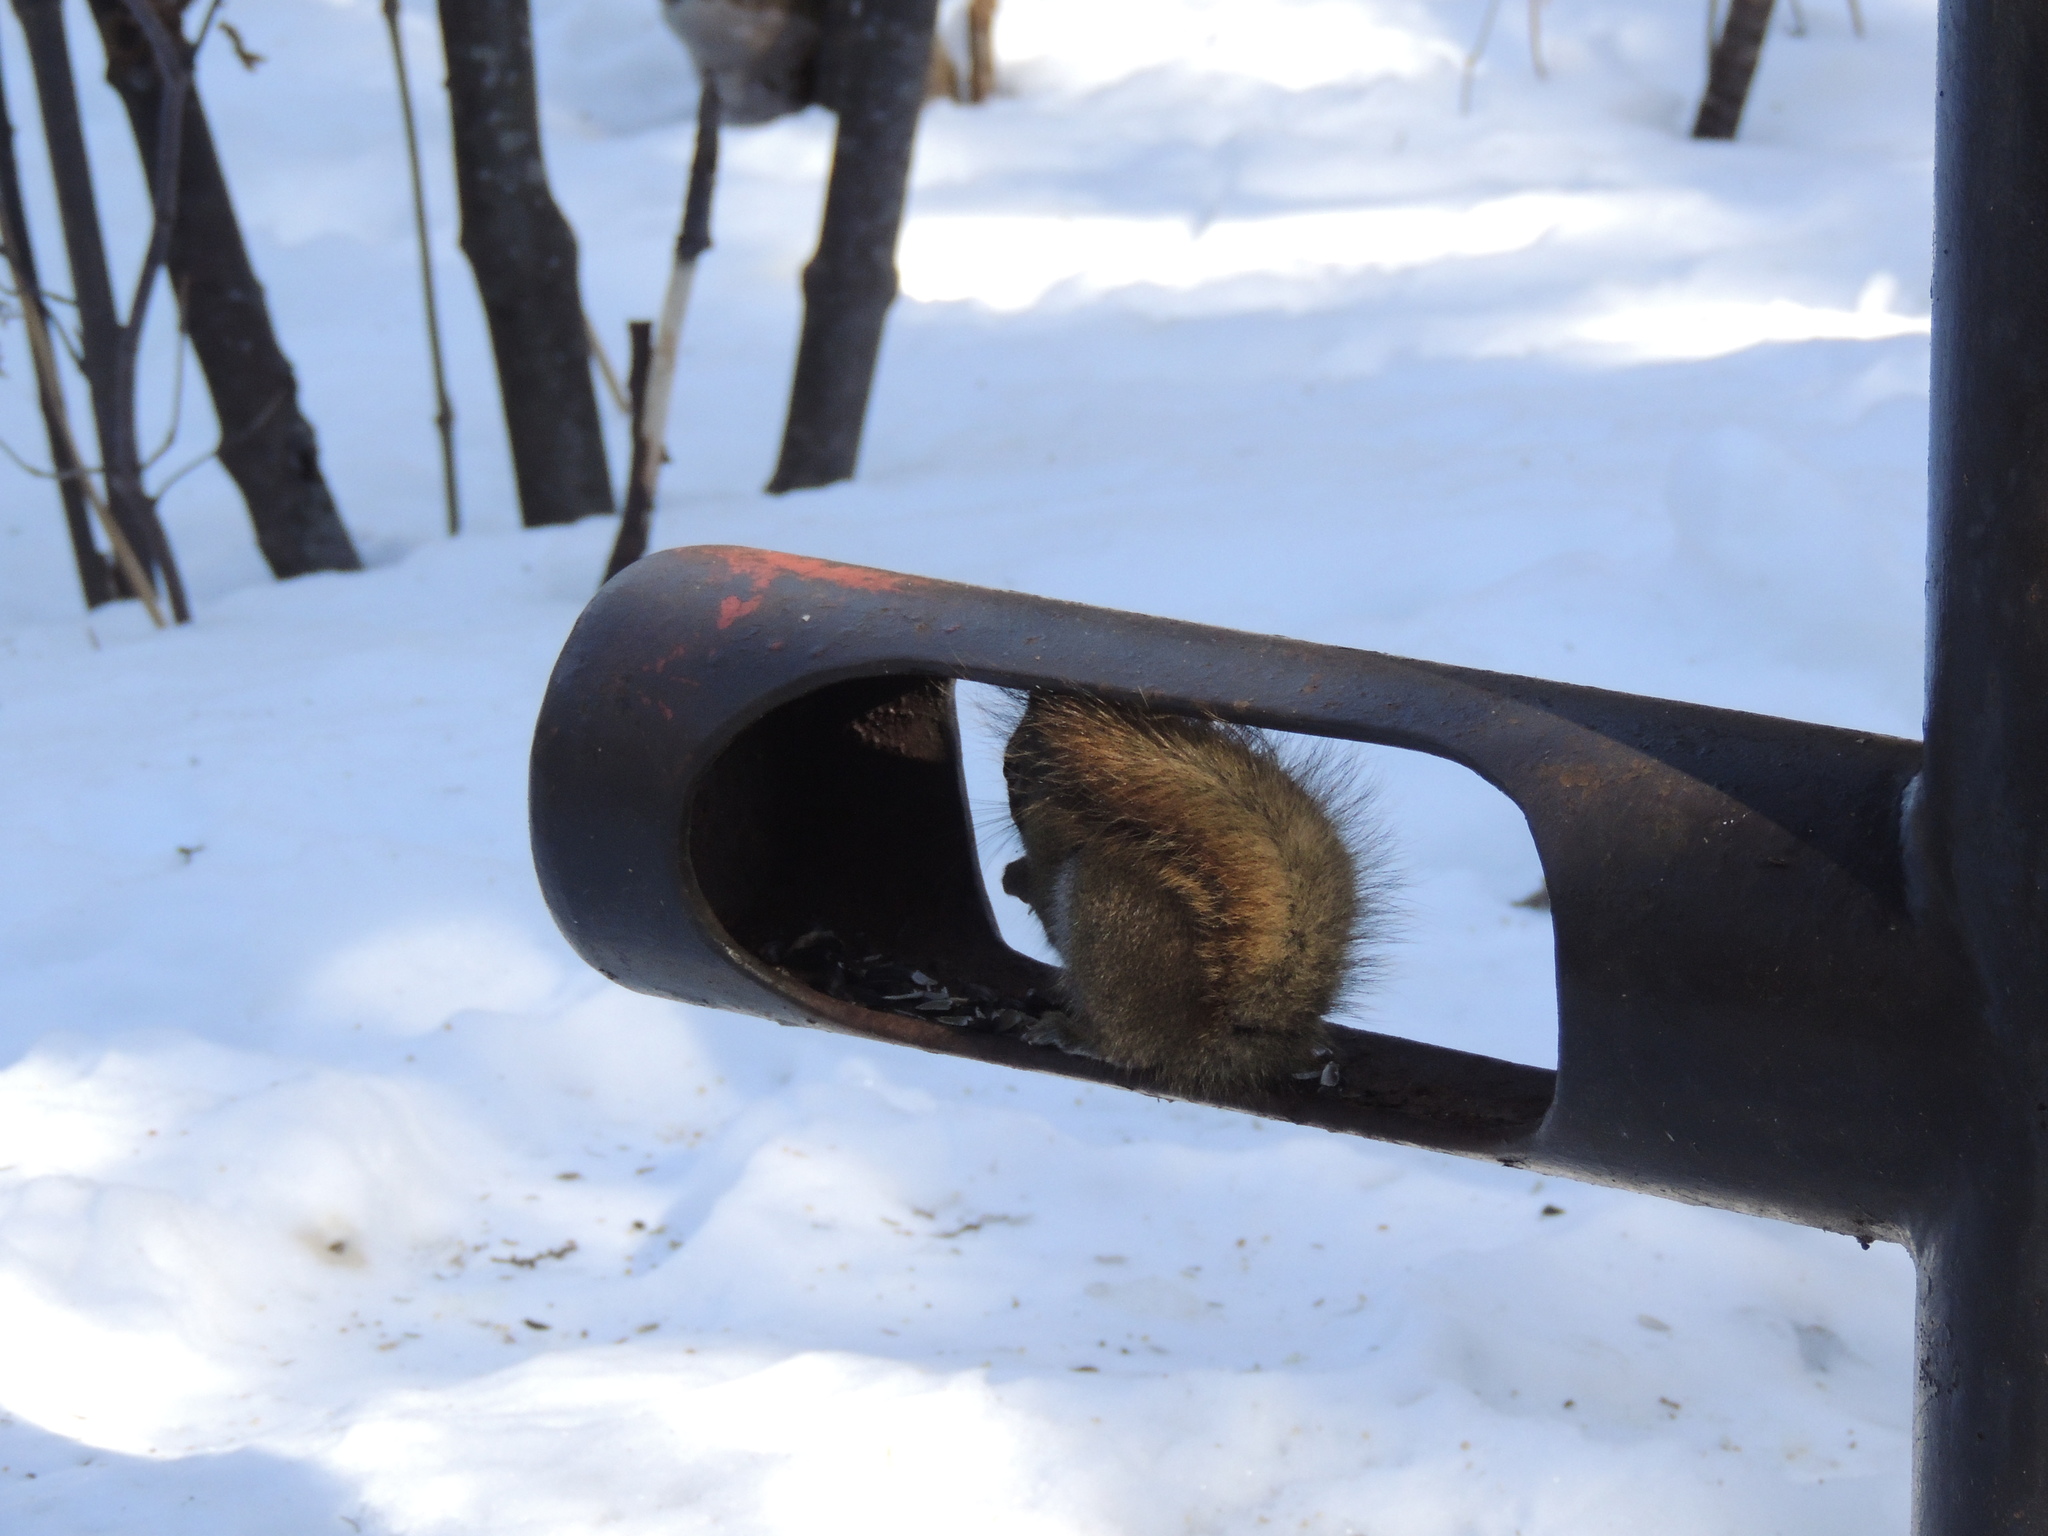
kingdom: Animalia
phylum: Chordata
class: Mammalia
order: Rodentia
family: Sciuridae
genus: Tamiasciurus
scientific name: Tamiasciurus hudsonicus
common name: Red squirrel
